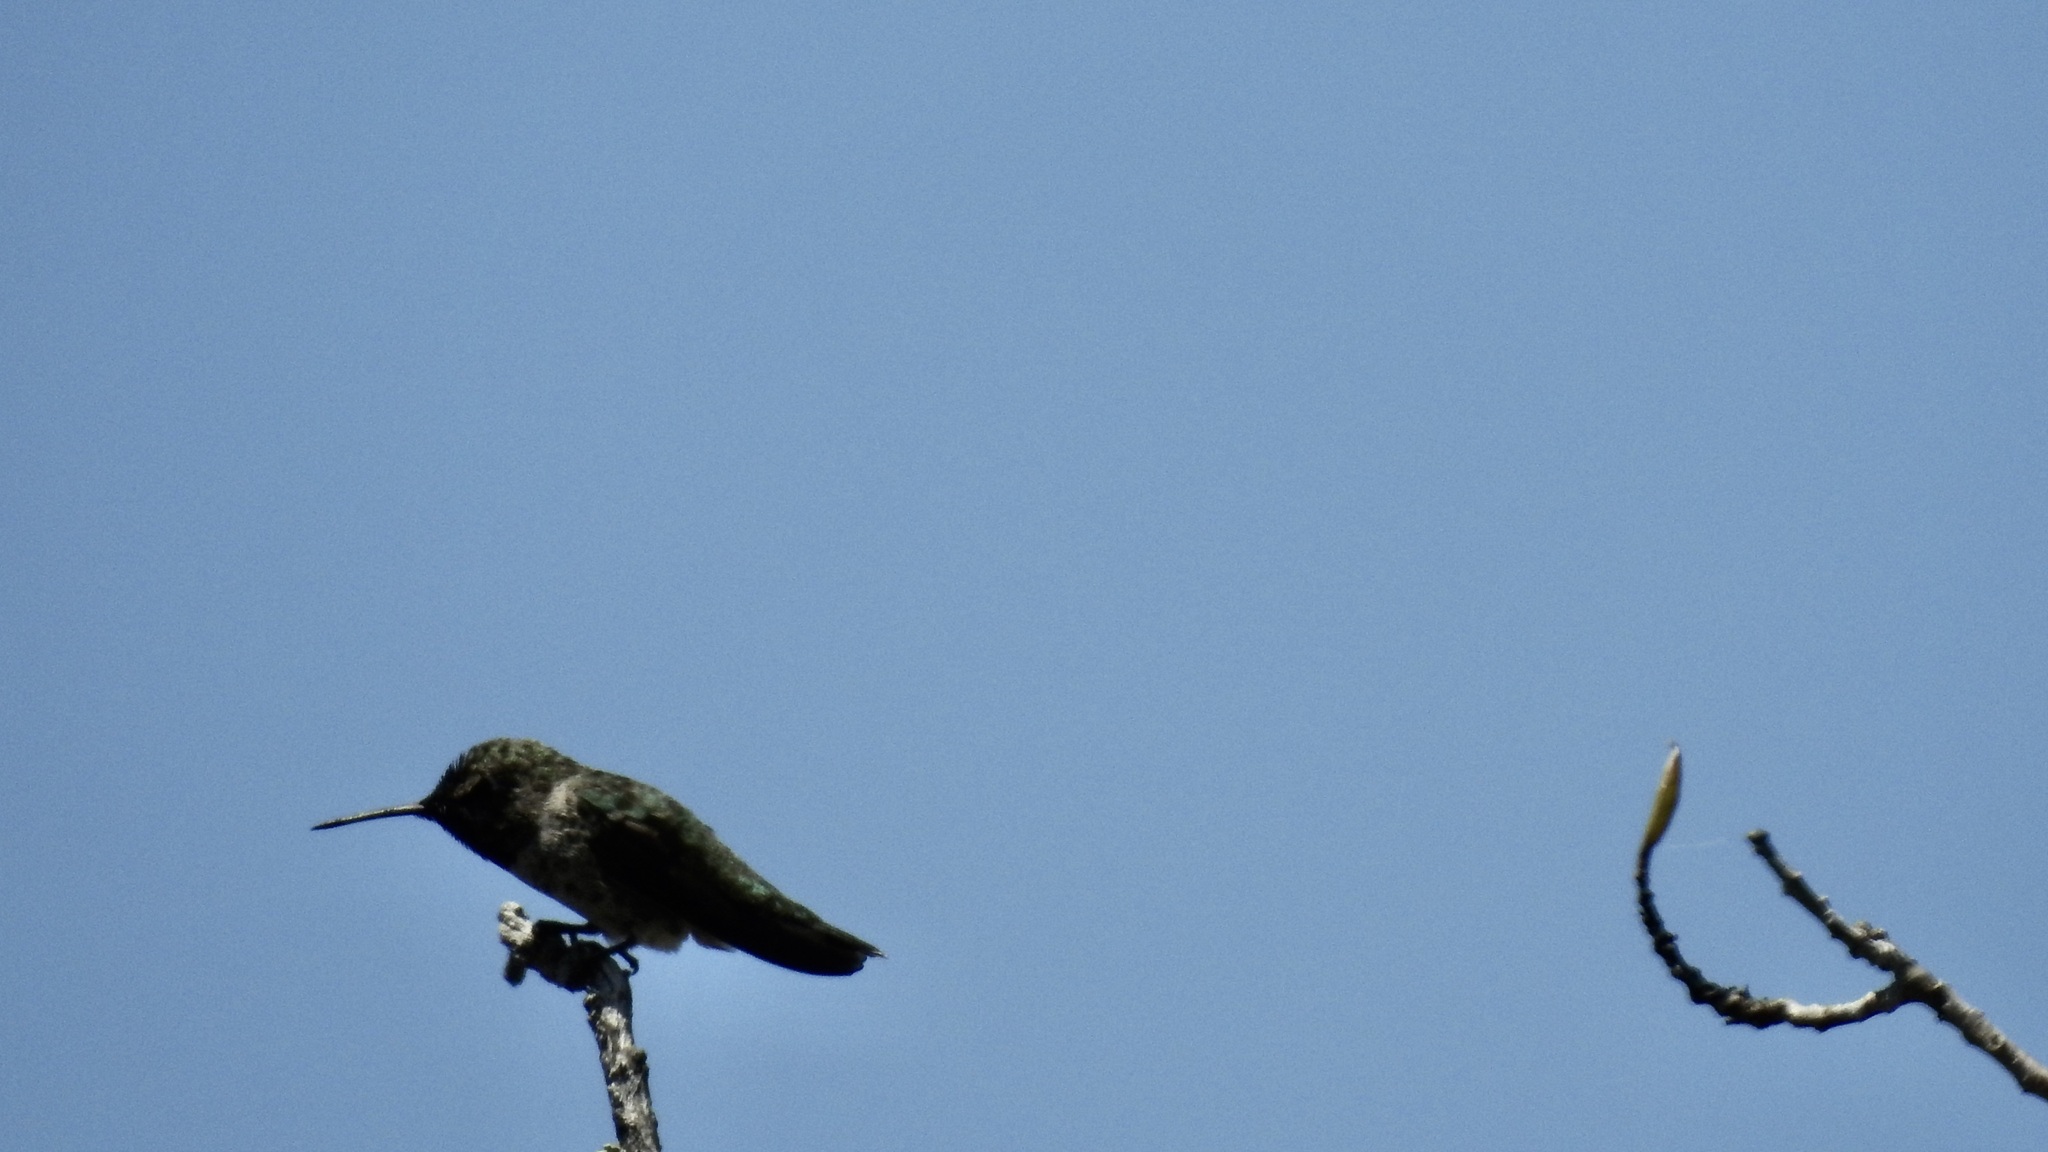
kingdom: Animalia
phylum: Chordata
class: Aves
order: Apodiformes
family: Trochilidae
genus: Calypte
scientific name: Calypte anna
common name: Anna's hummingbird
